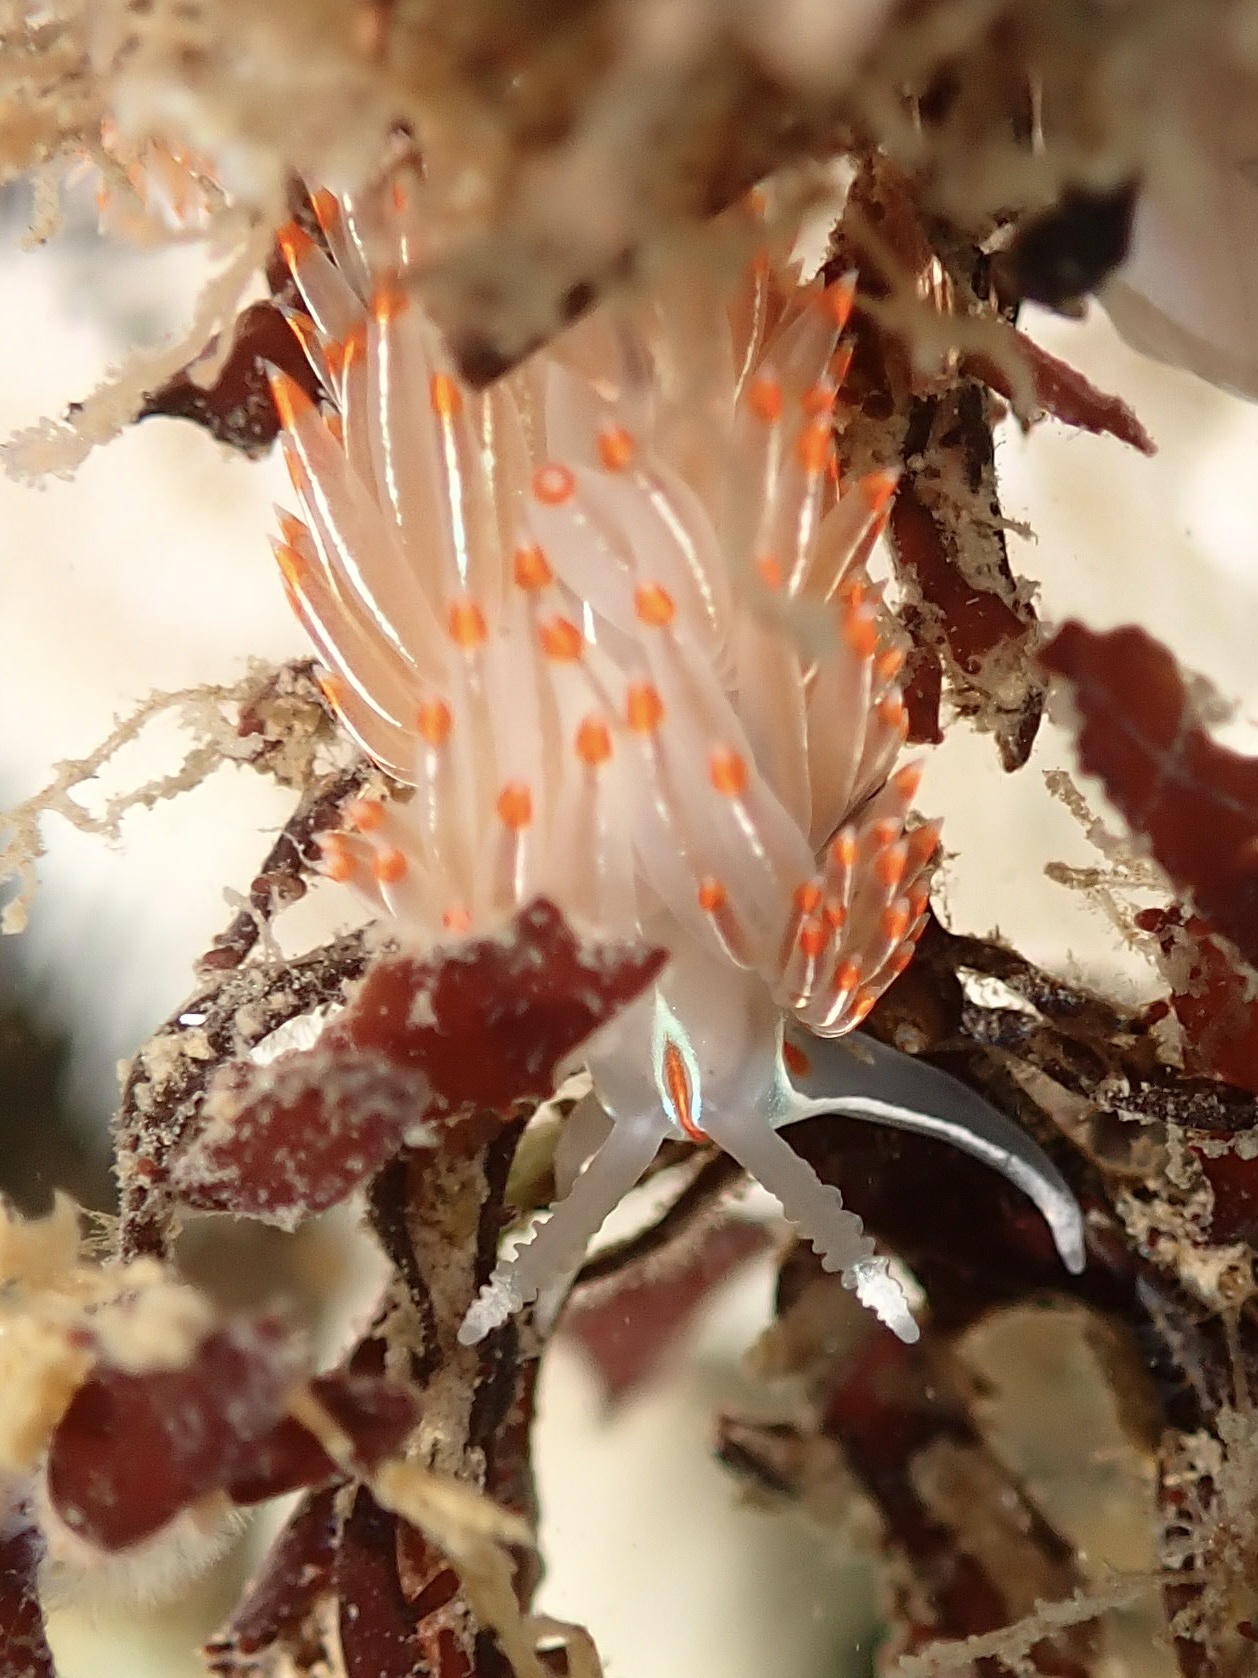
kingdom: Animalia
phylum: Mollusca
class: Gastropoda
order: Nudibranchia
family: Myrrhinidae
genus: Hermissenda
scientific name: Hermissenda crassicornis
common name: Hermissenda
